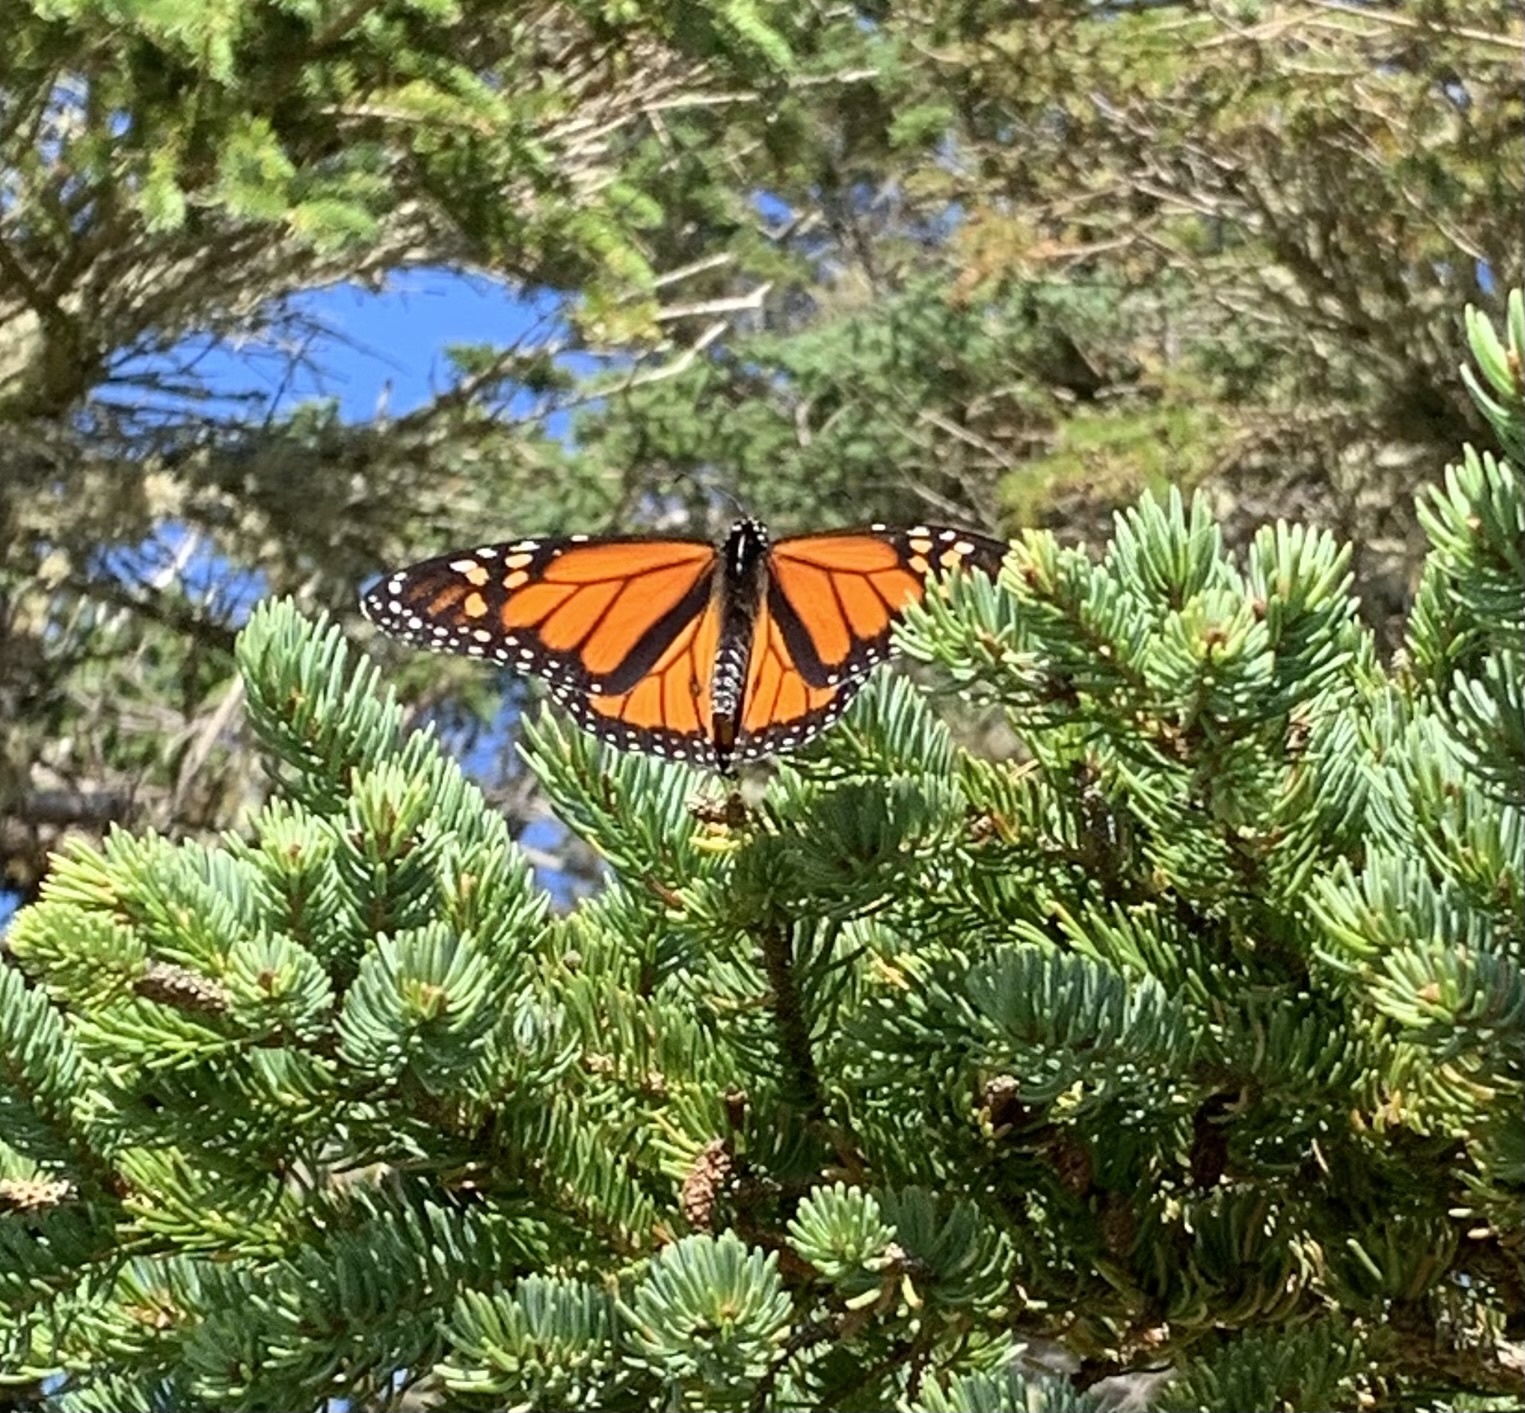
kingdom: Animalia
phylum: Arthropoda
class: Insecta
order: Lepidoptera
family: Nymphalidae
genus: Danaus
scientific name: Danaus plexippus
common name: Monarch
